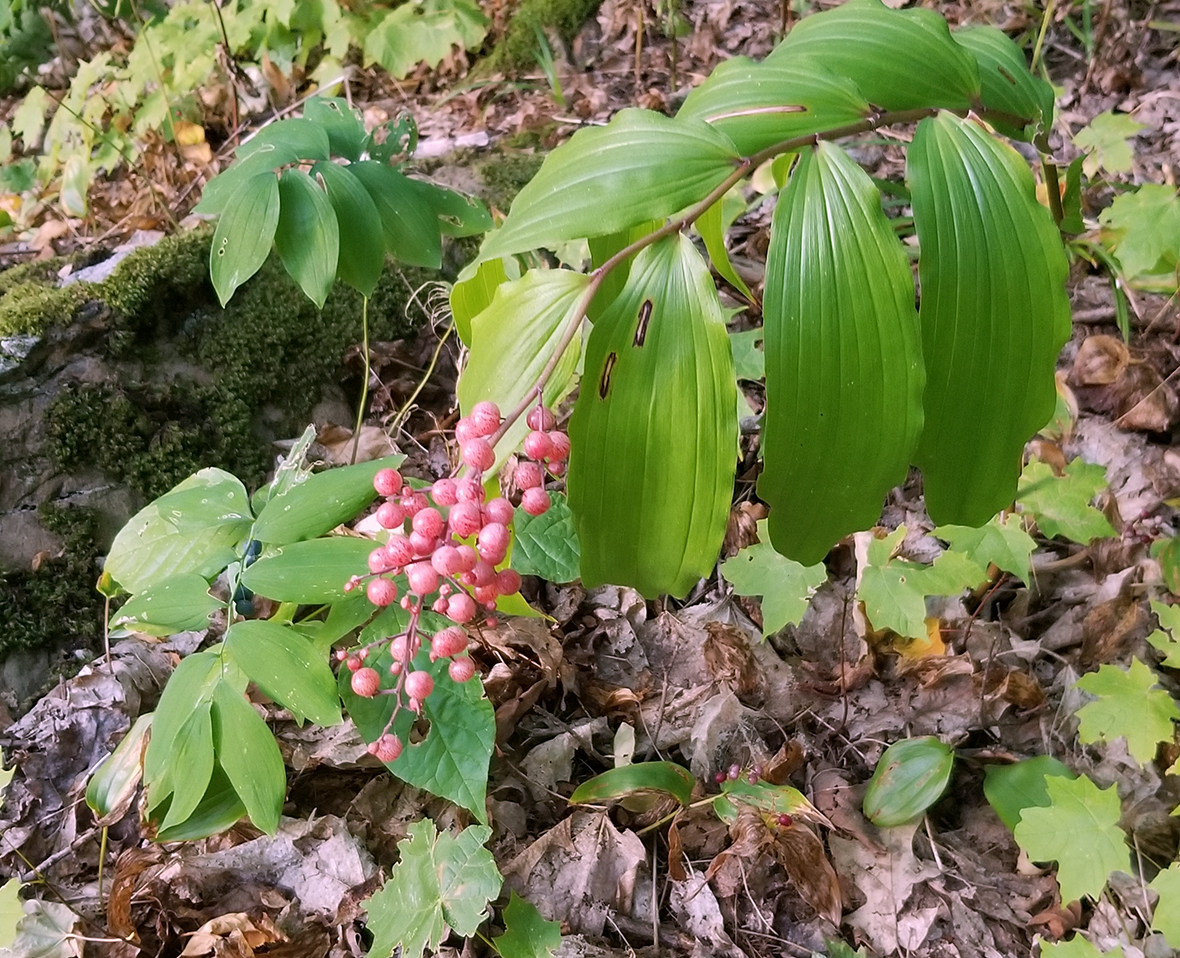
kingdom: Plantae
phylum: Tracheophyta
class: Liliopsida
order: Asparagales
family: Asparagaceae
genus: Maianthemum
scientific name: Maianthemum racemosum
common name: False spikenard
